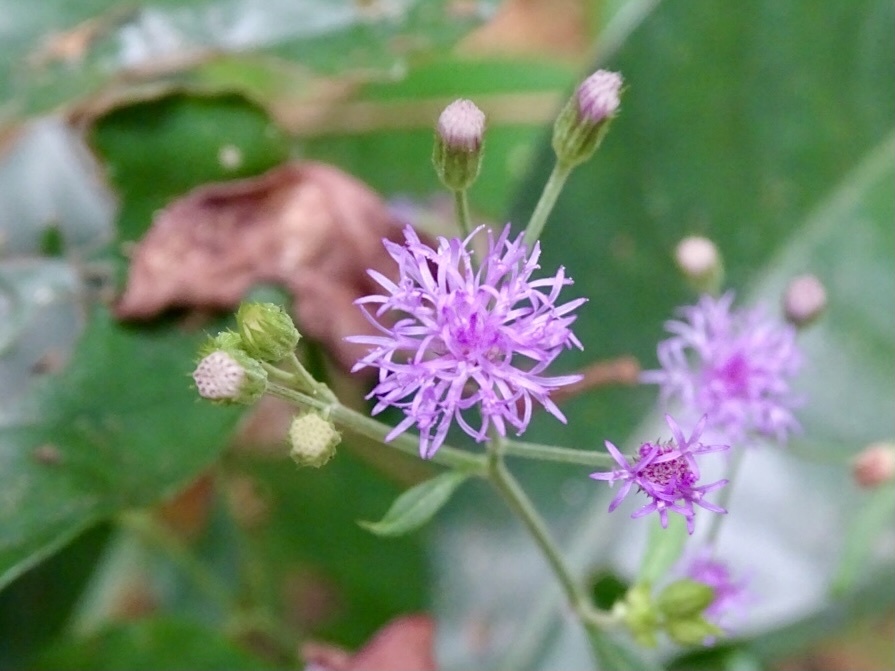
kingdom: Plantae
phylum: Tracheophyta
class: Magnoliopsida
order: Asterales
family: Asteraceae
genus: Cyanthillium
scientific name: Cyanthillium cinereum
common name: Little ironweed
